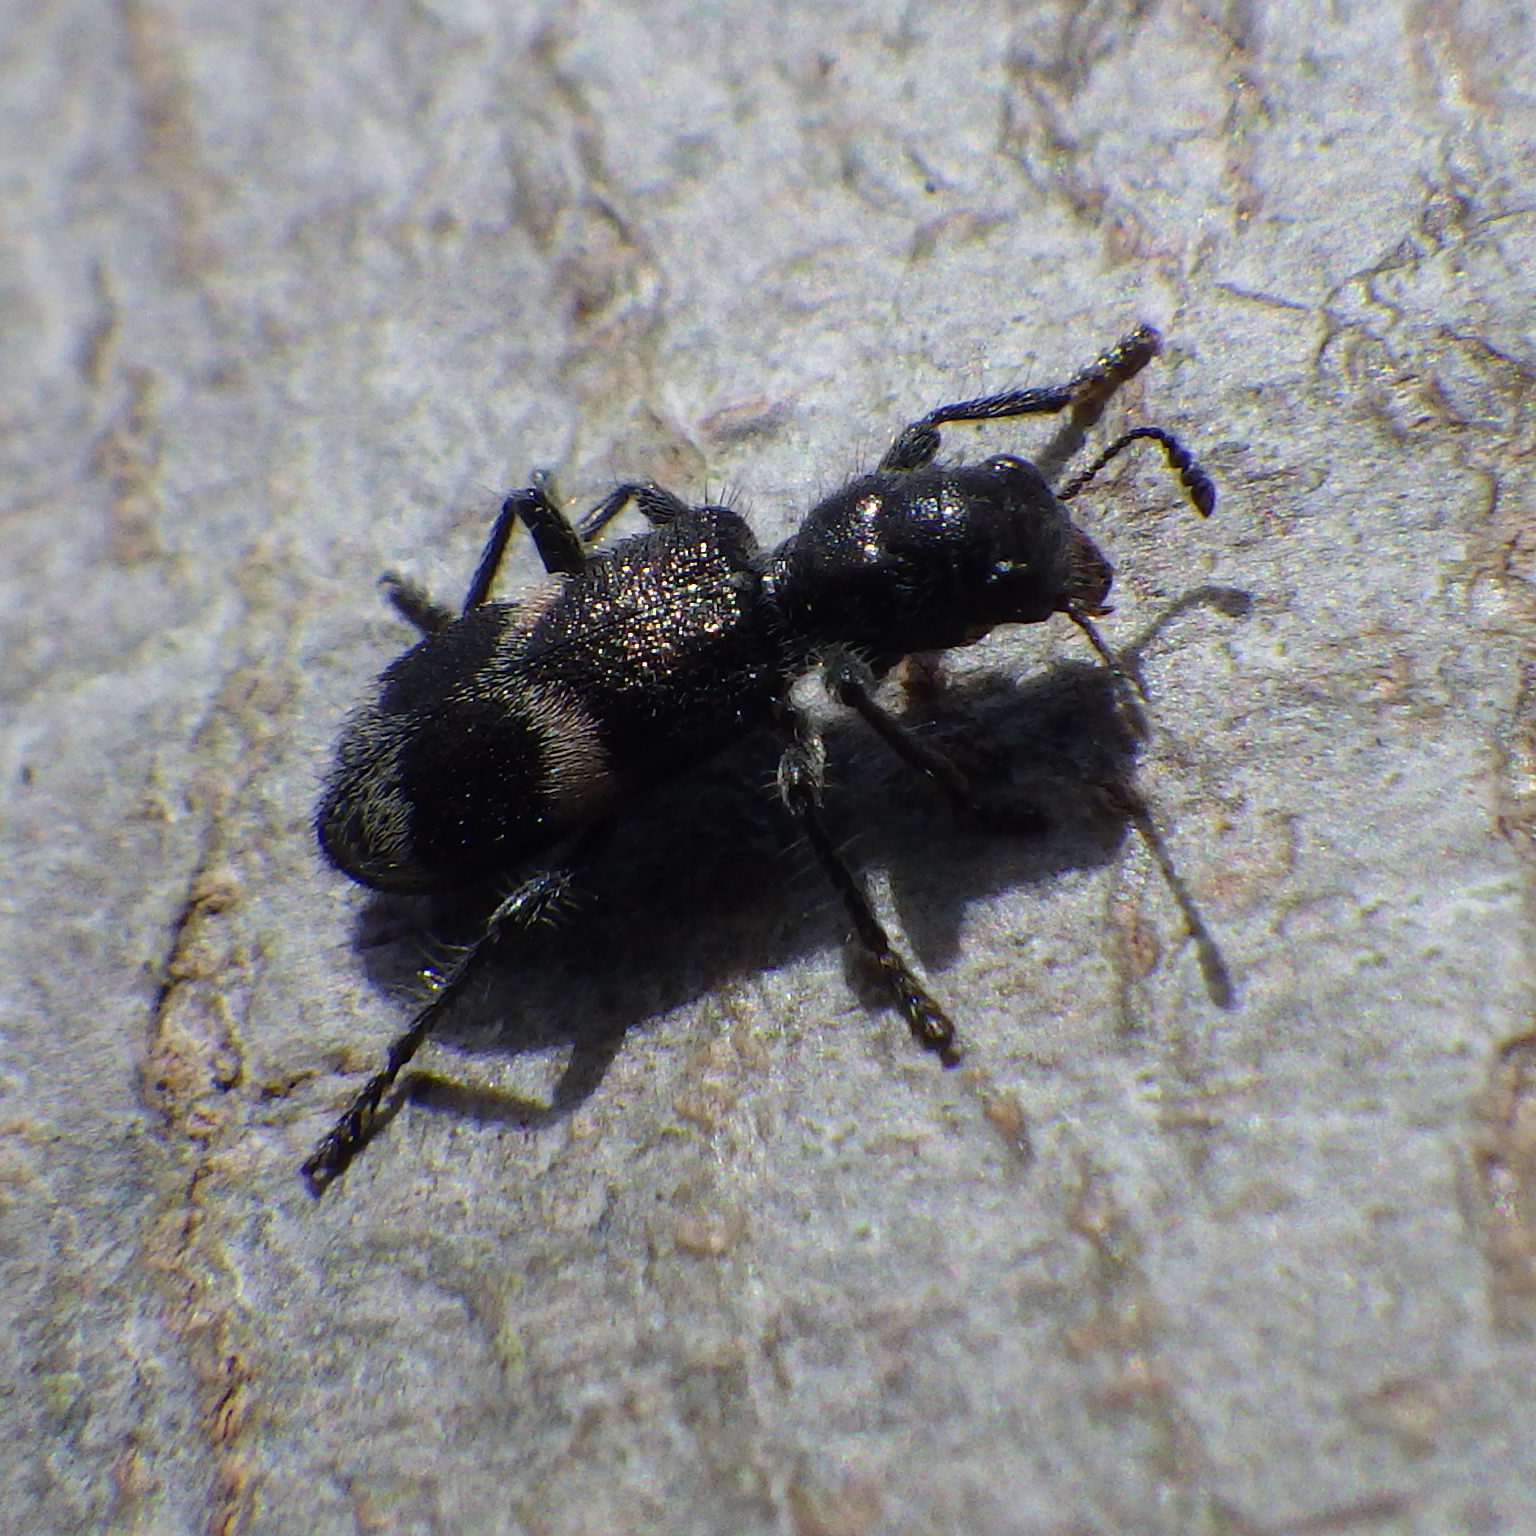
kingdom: Animalia
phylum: Arthropoda
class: Insecta
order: Coleoptera
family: Cleridae
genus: Enoclerus
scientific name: Enoclerus nigripes
